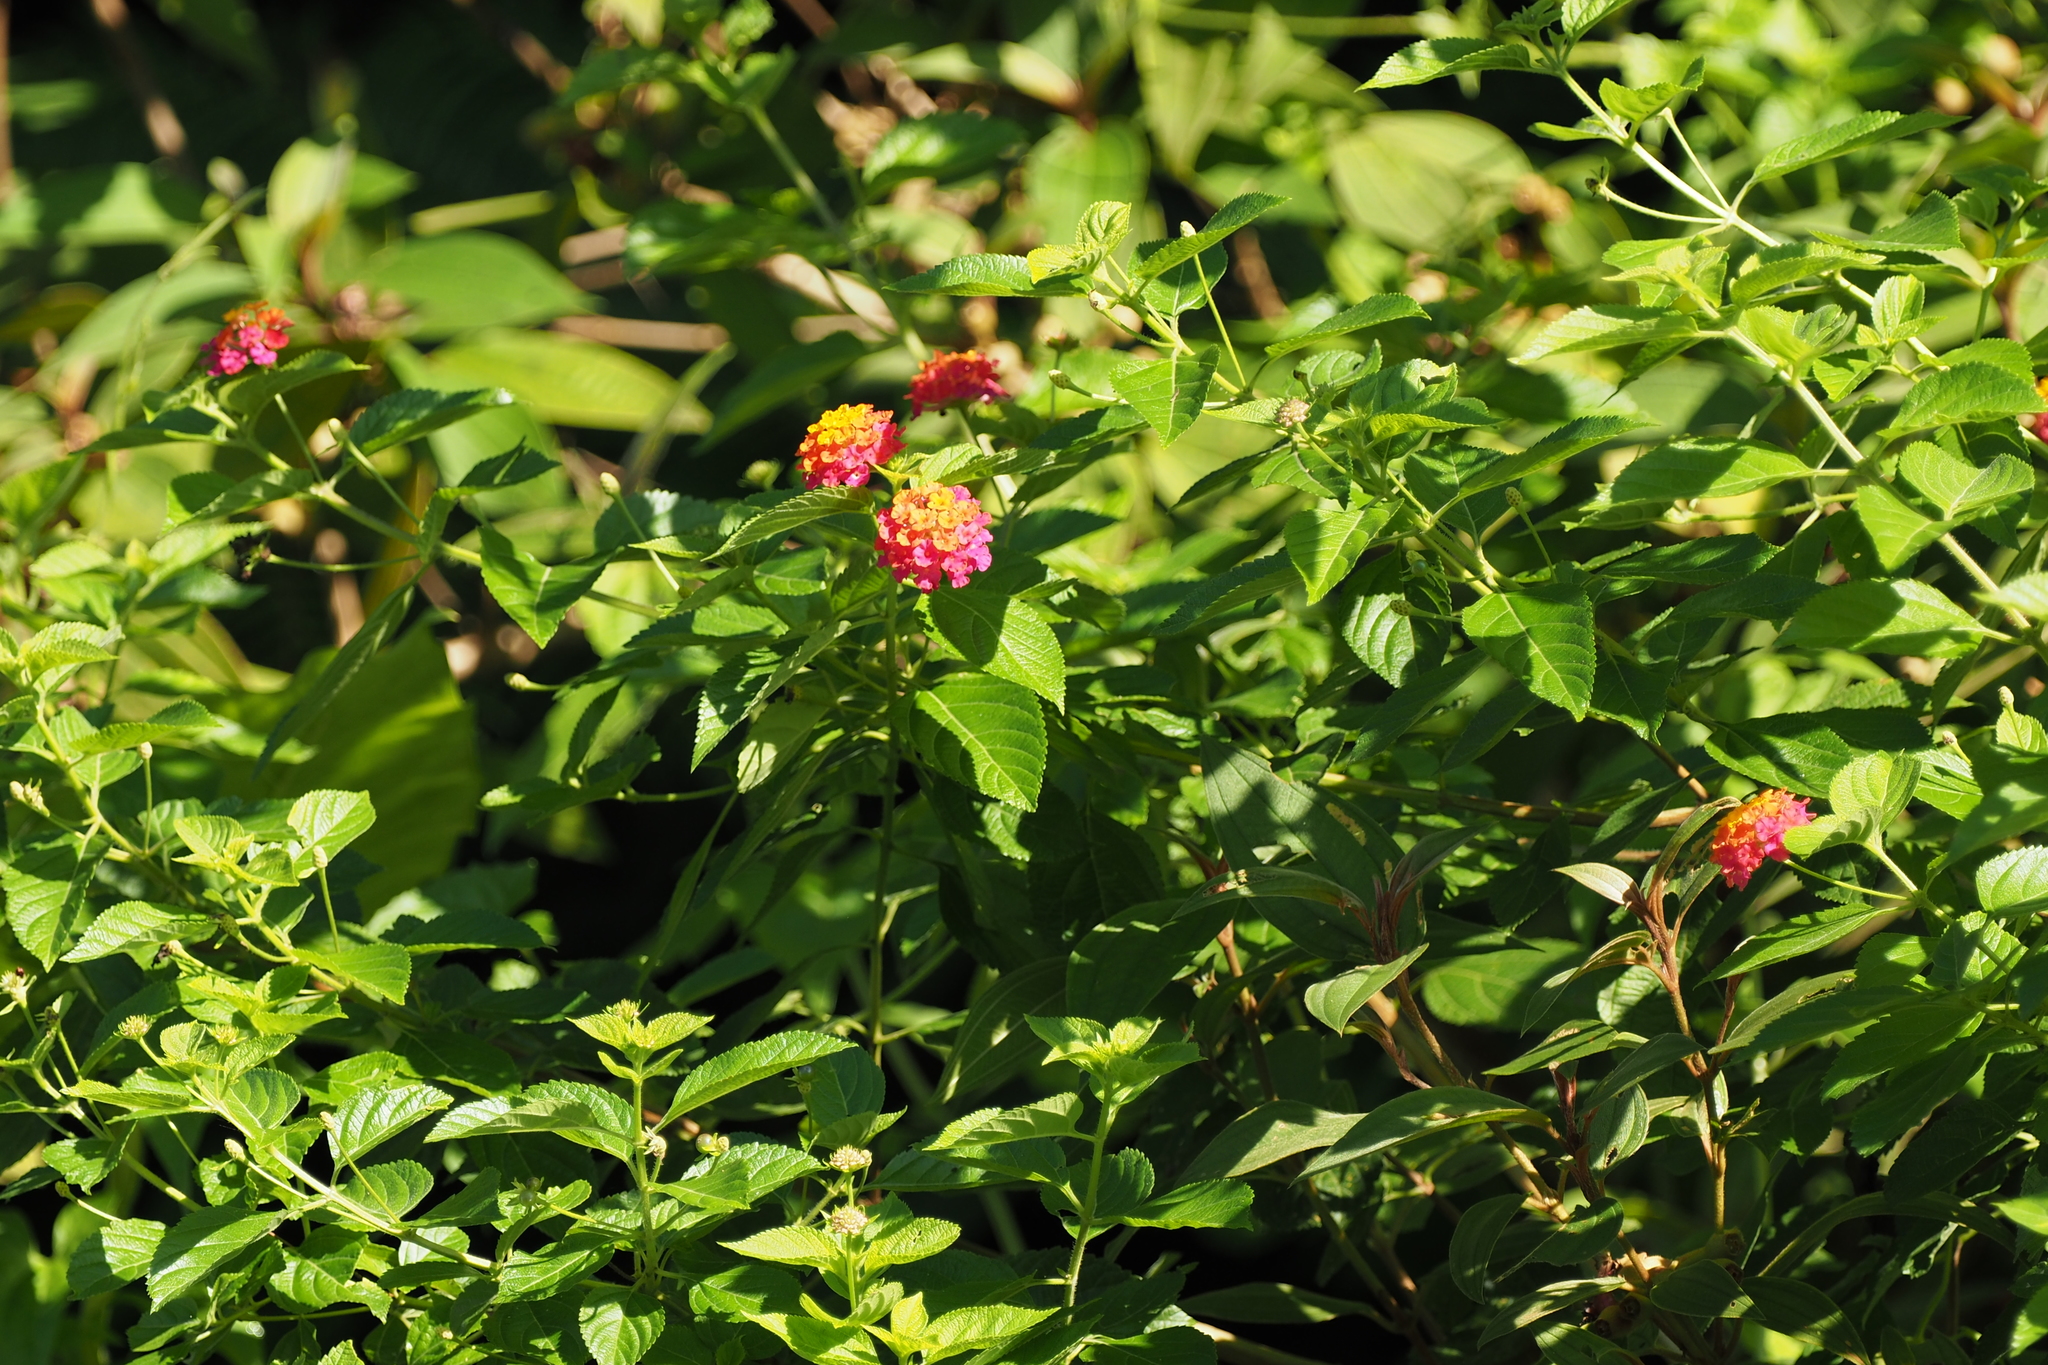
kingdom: Plantae
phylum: Tracheophyta
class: Magnoliopsida
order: Lamiales
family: Verbenaceae
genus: Lantana
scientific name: Lantana camara
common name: Lantana
